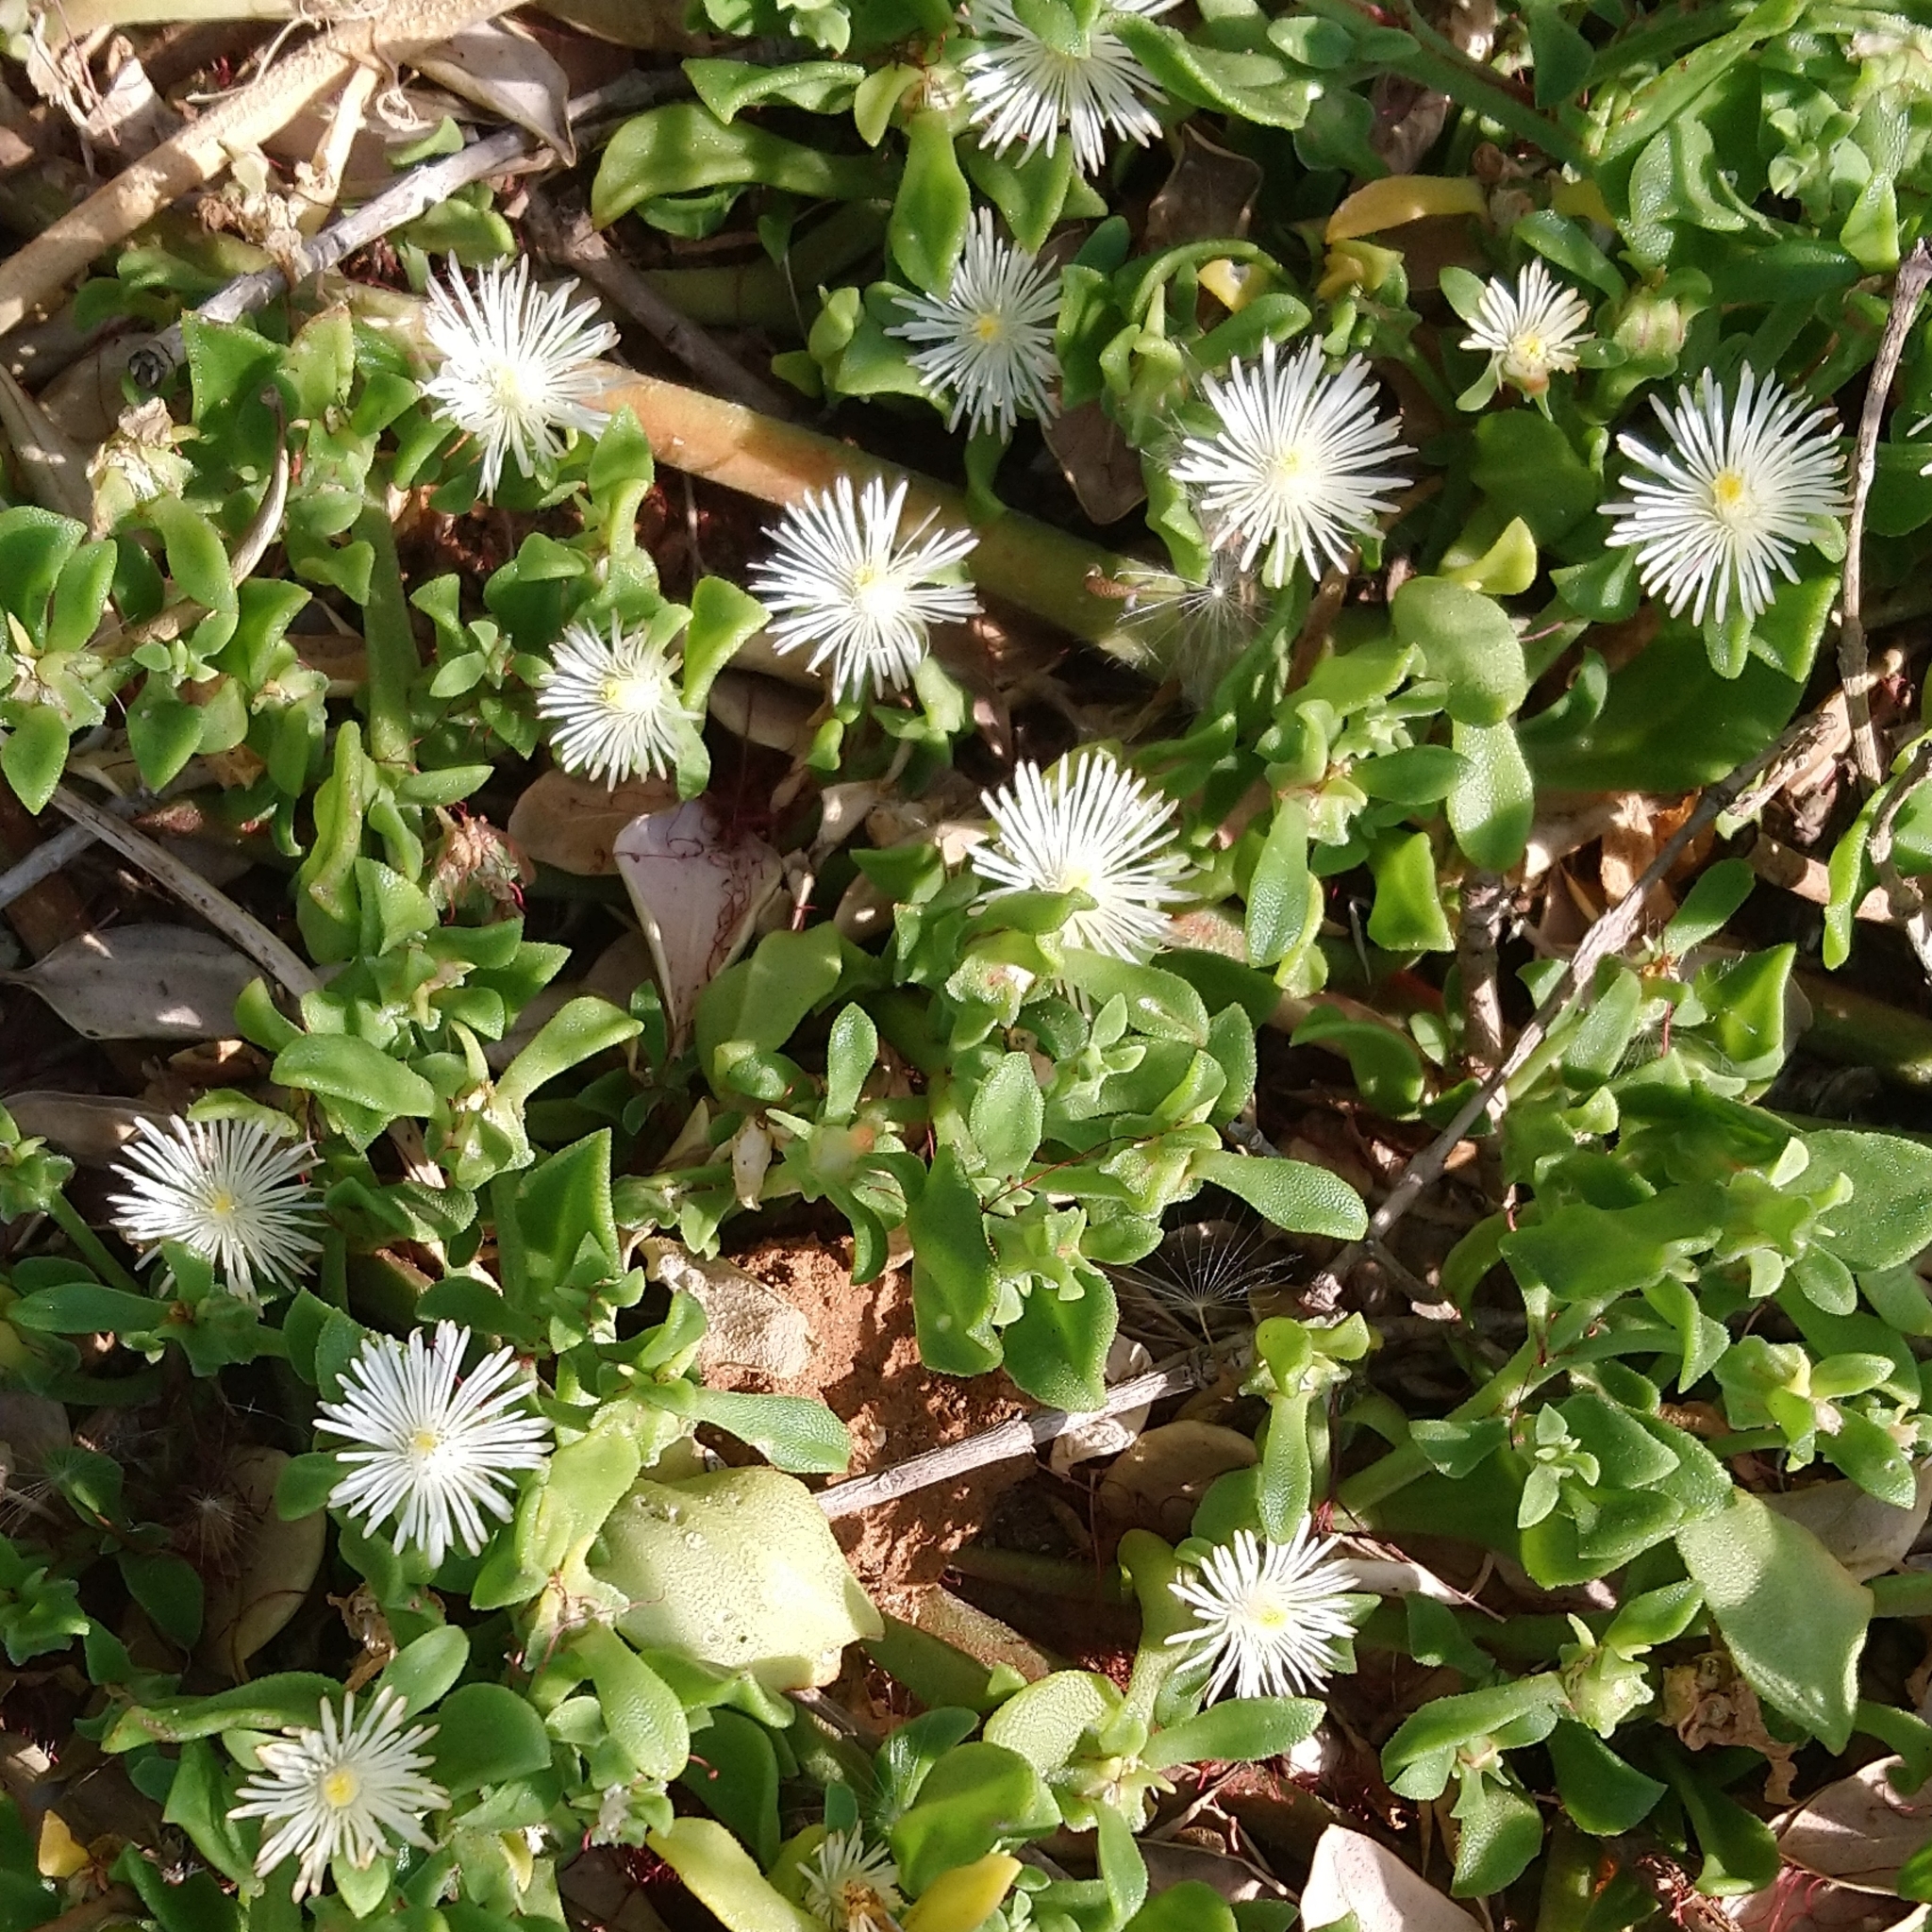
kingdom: Plantae
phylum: Tracheophyta
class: Magnoliopsida
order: Caryophyllales
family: Aizoaceae
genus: Mesembryanthemum
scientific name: Mesembryanthemum aitonis
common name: Angled iceplant
